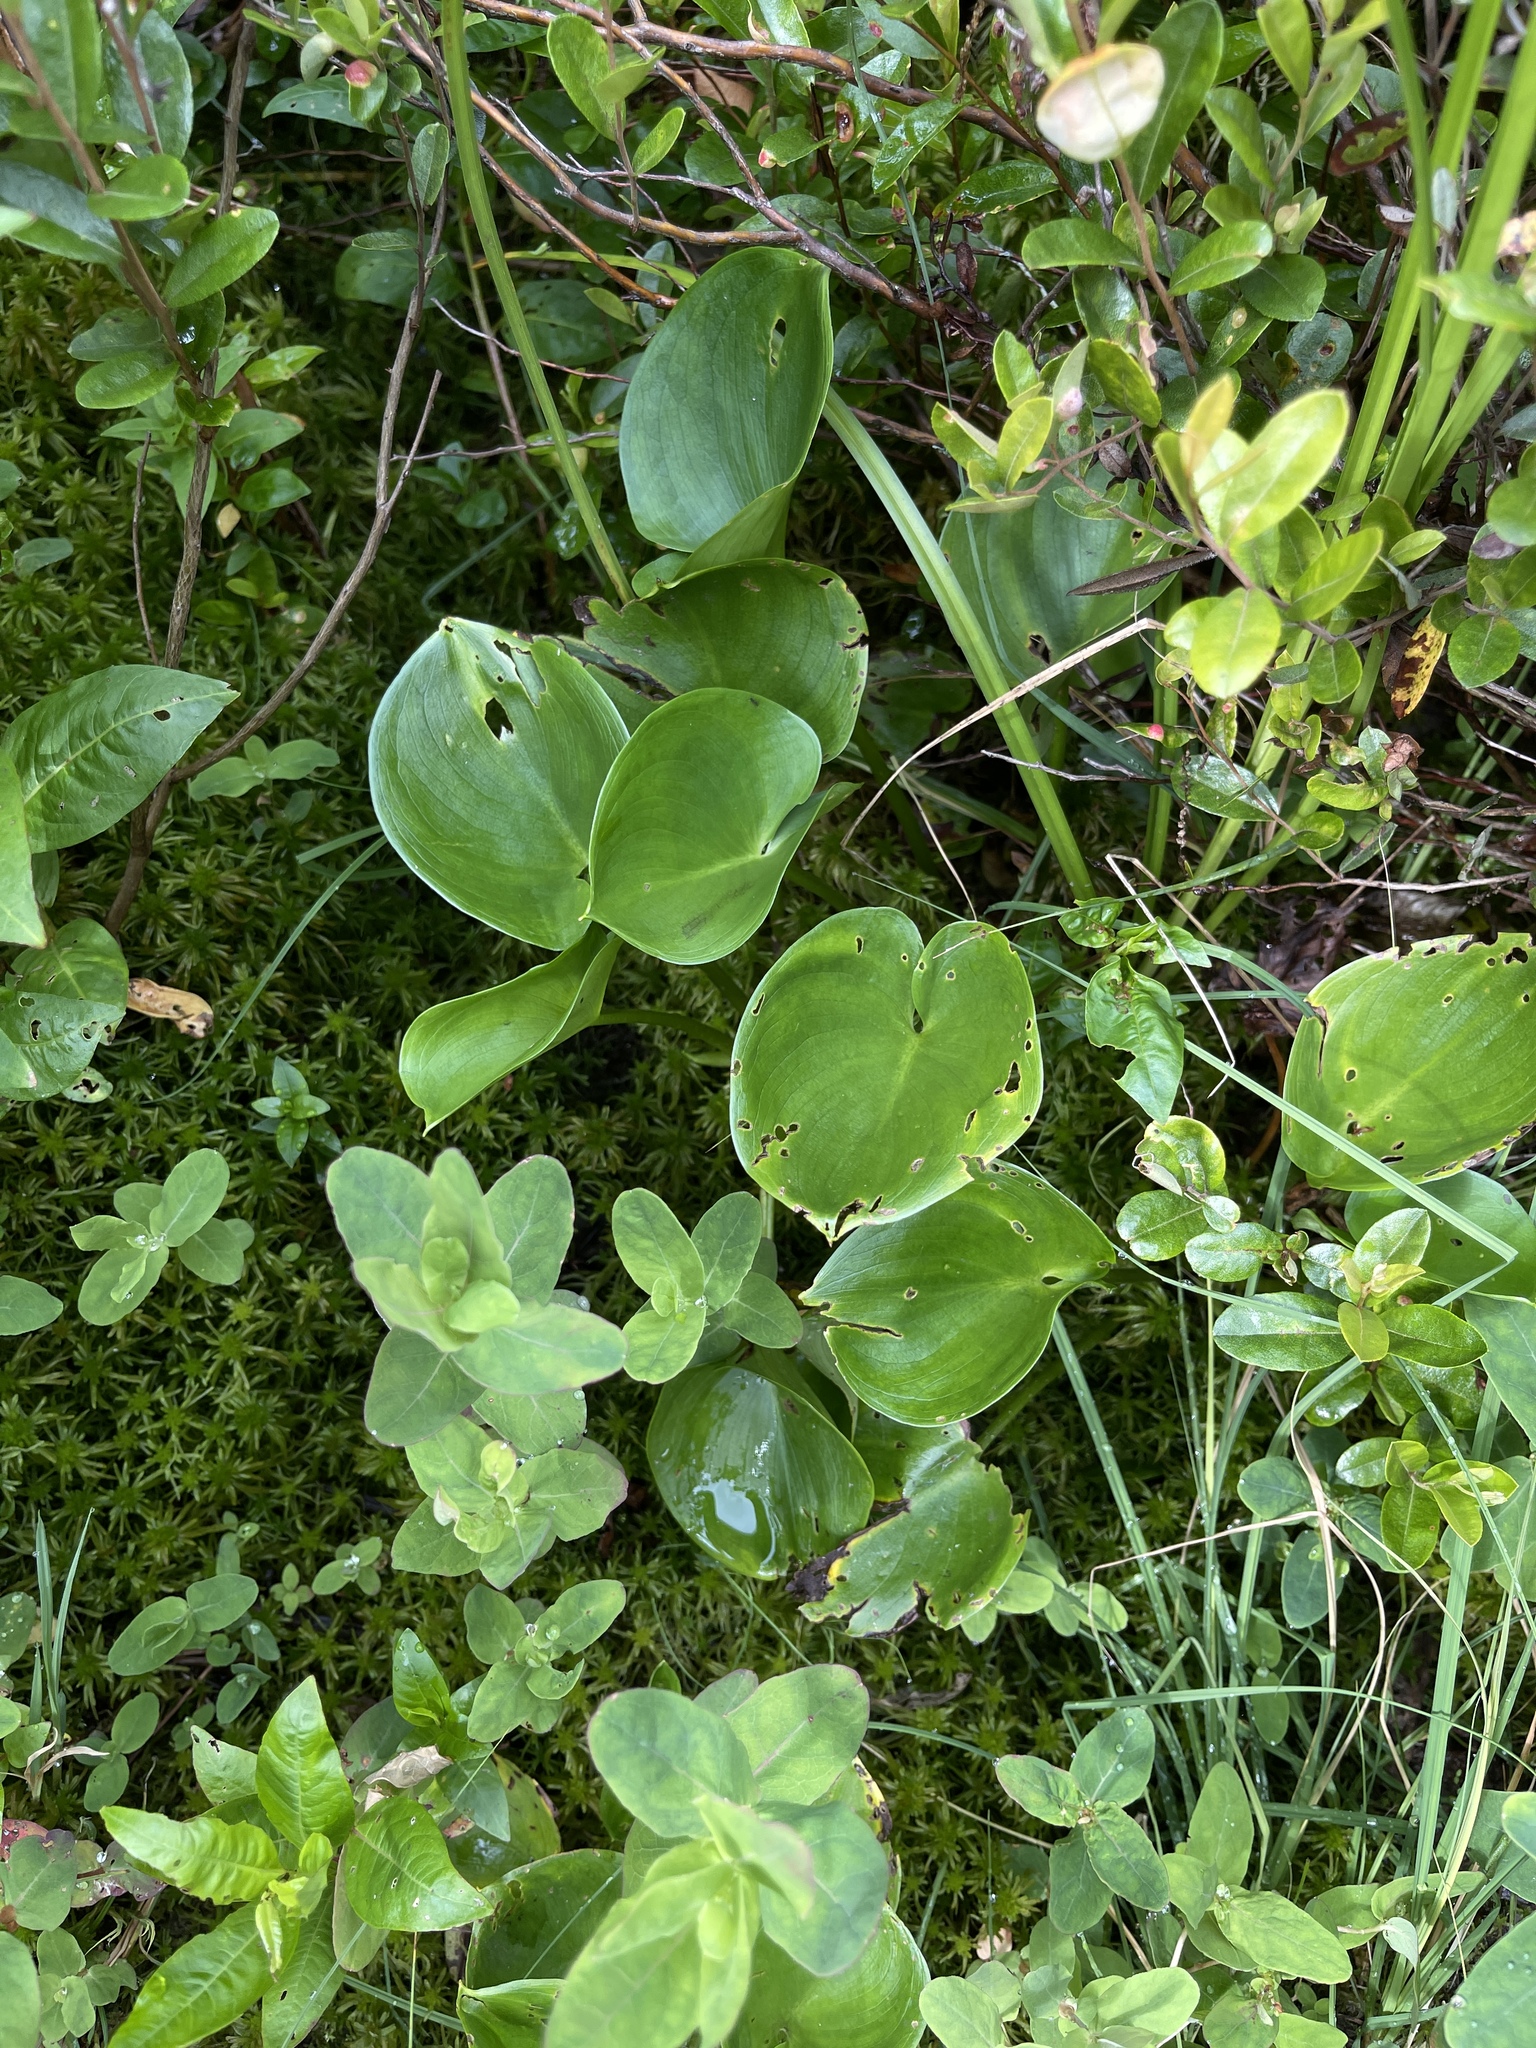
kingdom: Plantae
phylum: Tracheophyta
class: Liliopsida
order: Alismatales
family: Araceae
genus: Calla
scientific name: Calla palustris
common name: Bog arum
